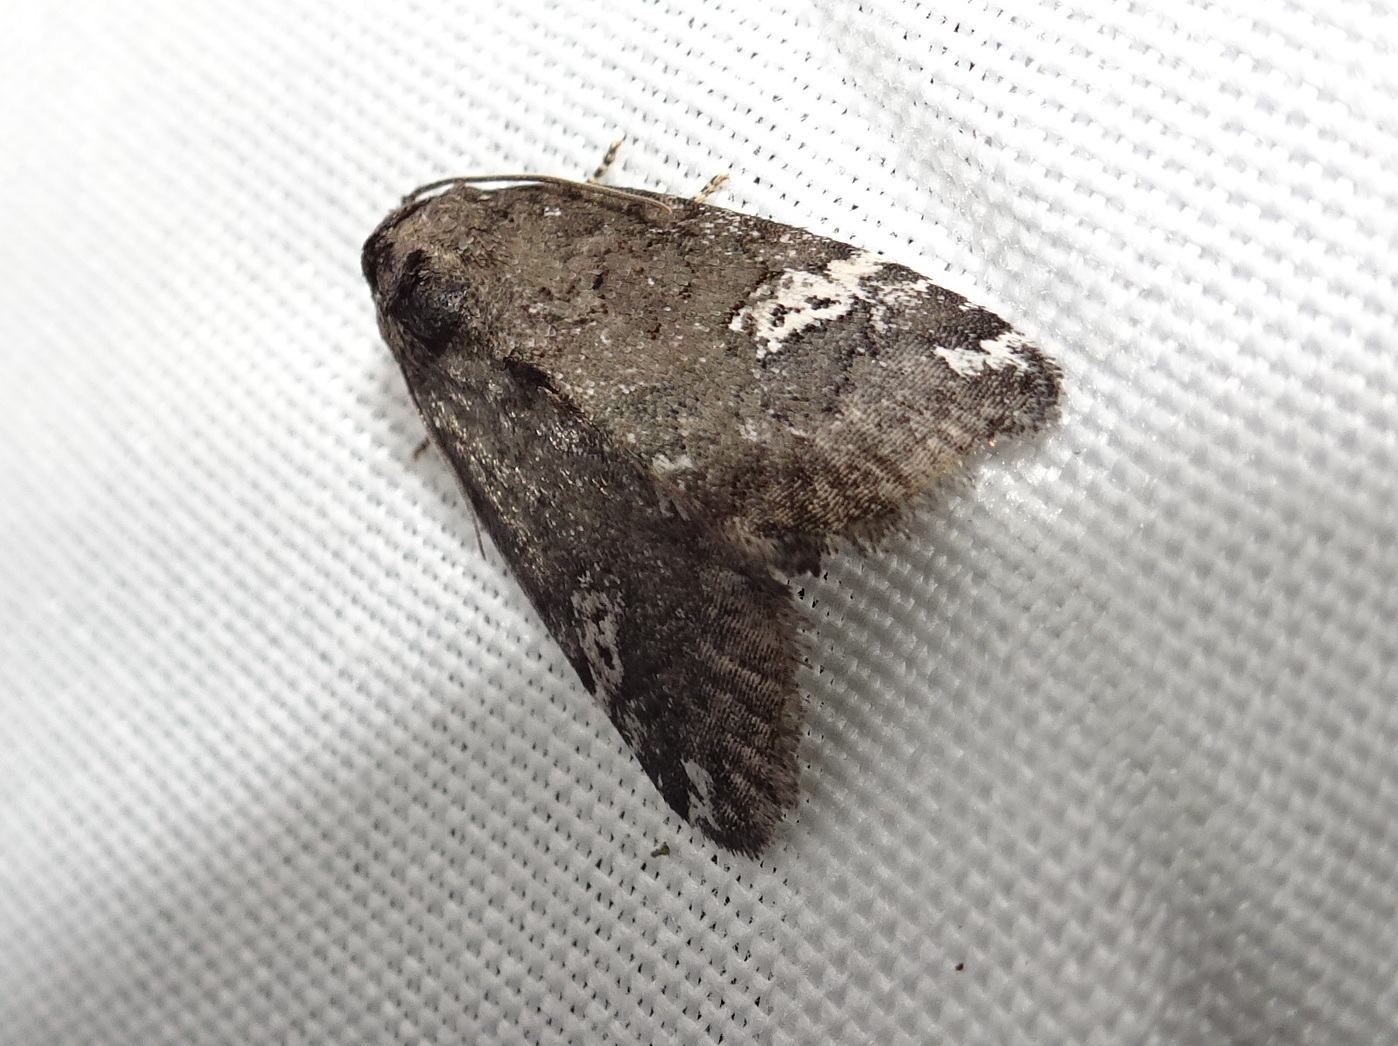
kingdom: Animalia
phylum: Arthropoda
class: Insecta
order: Lepidoptera
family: Noctuidae
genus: Anterastria
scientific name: Anterastria teratophora
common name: Gray marvel moth
